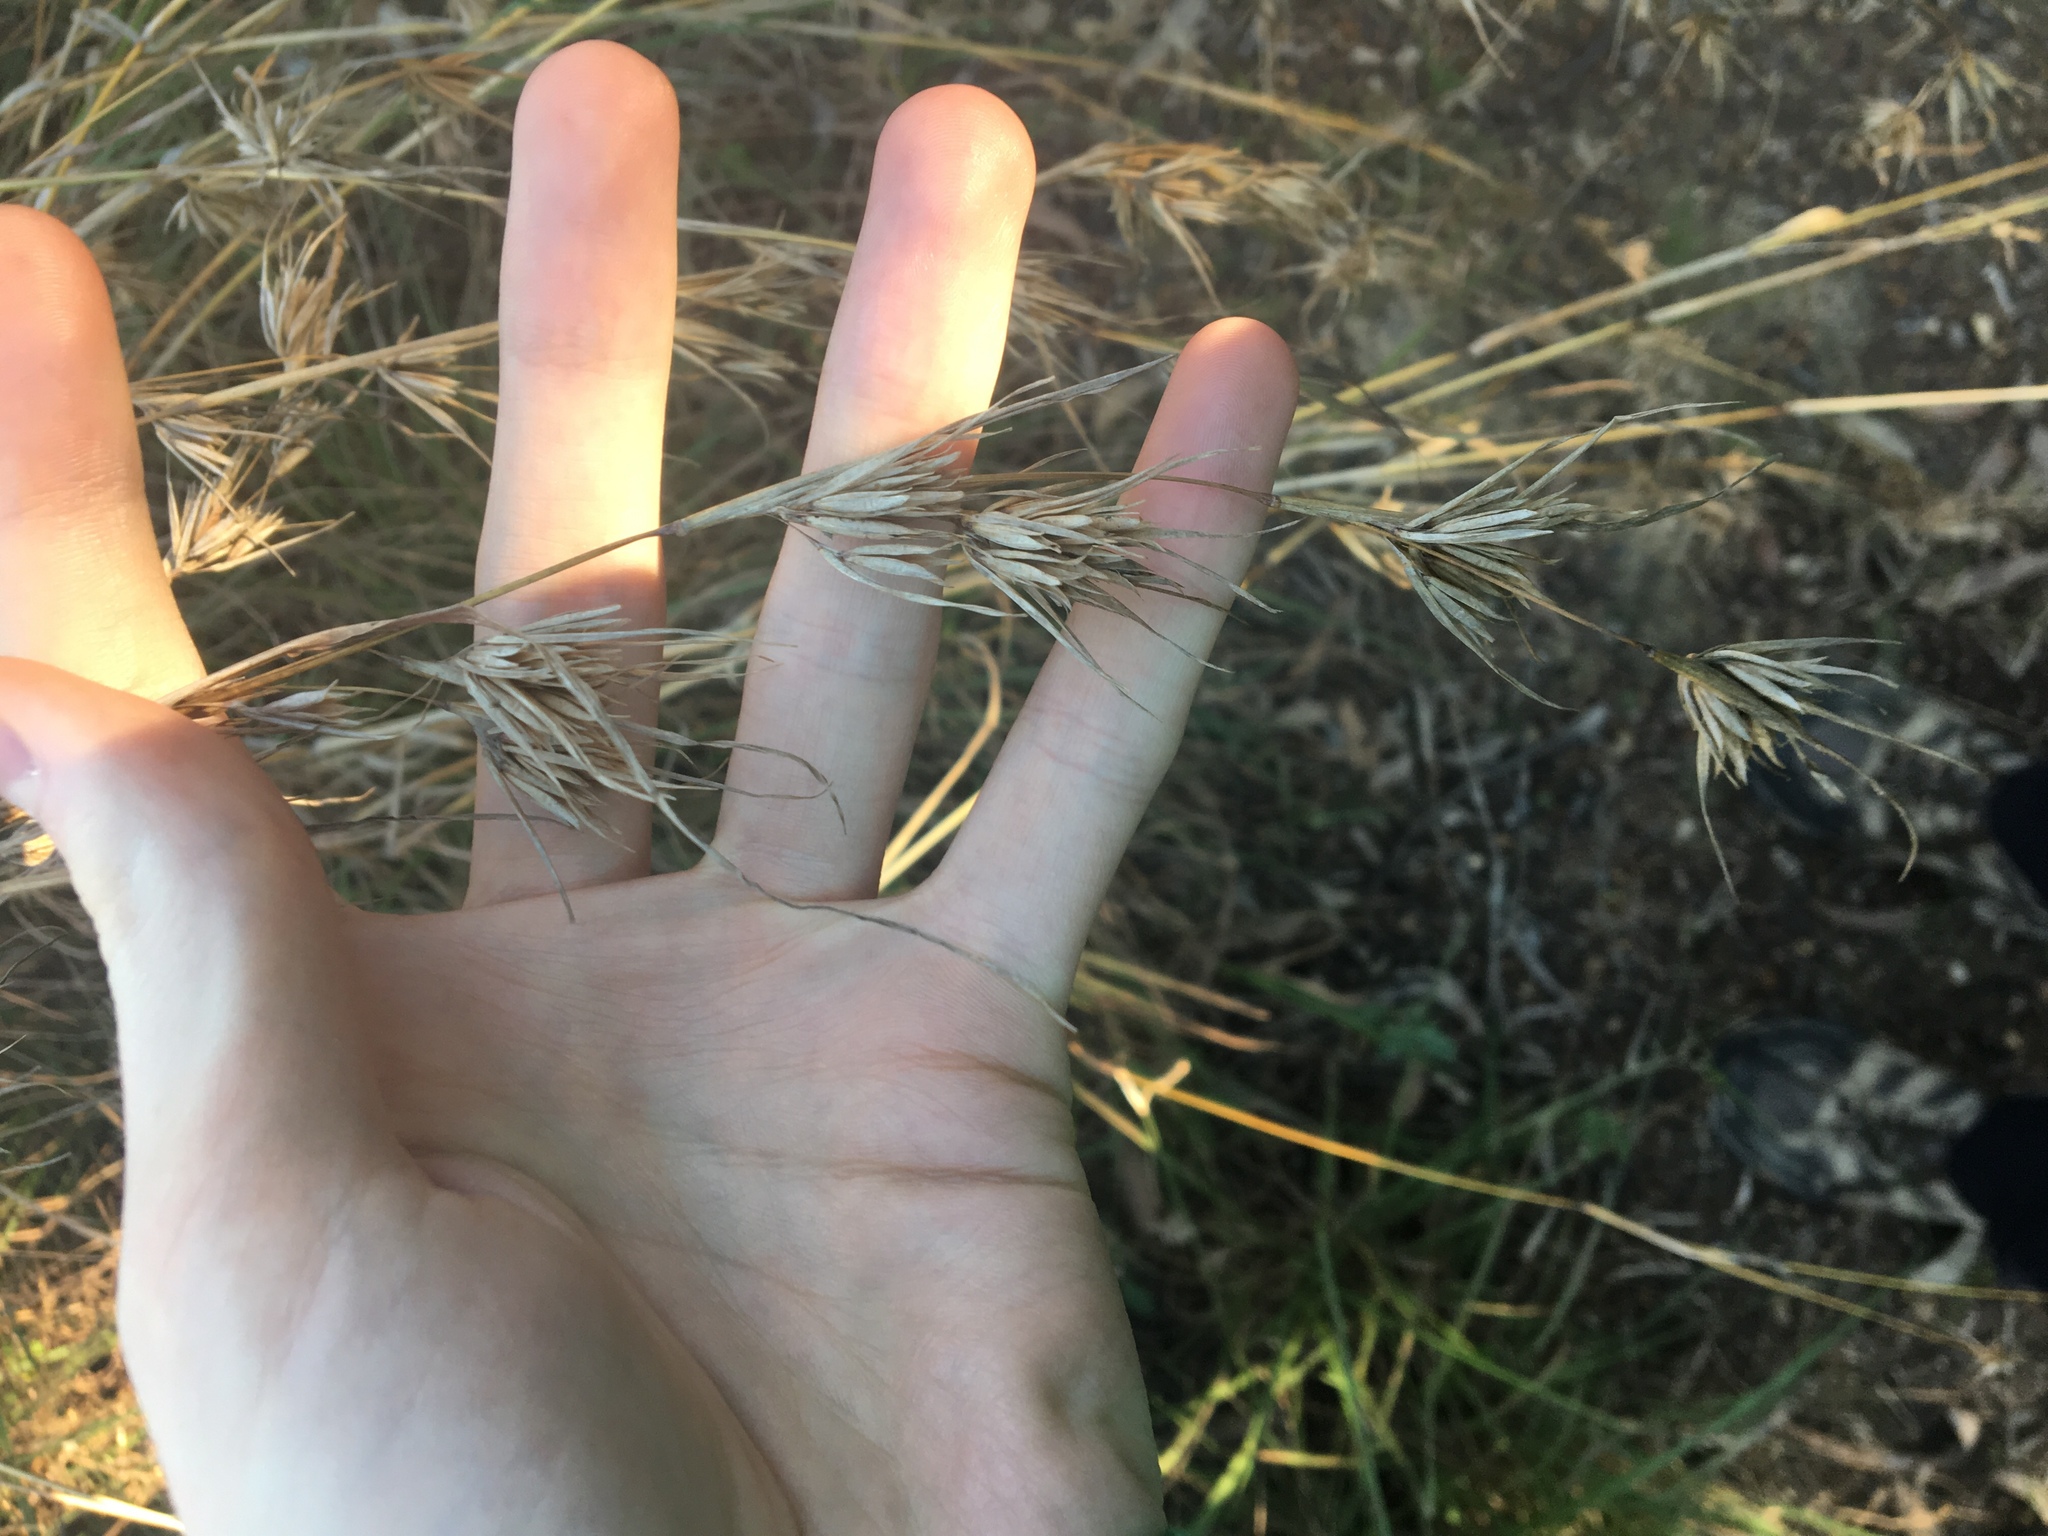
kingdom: Plantae
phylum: Tracheophyta
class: Liliopsida
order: Poales
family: Poaceae
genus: Themeda
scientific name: Themeda triandra
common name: Kangaroo grass
